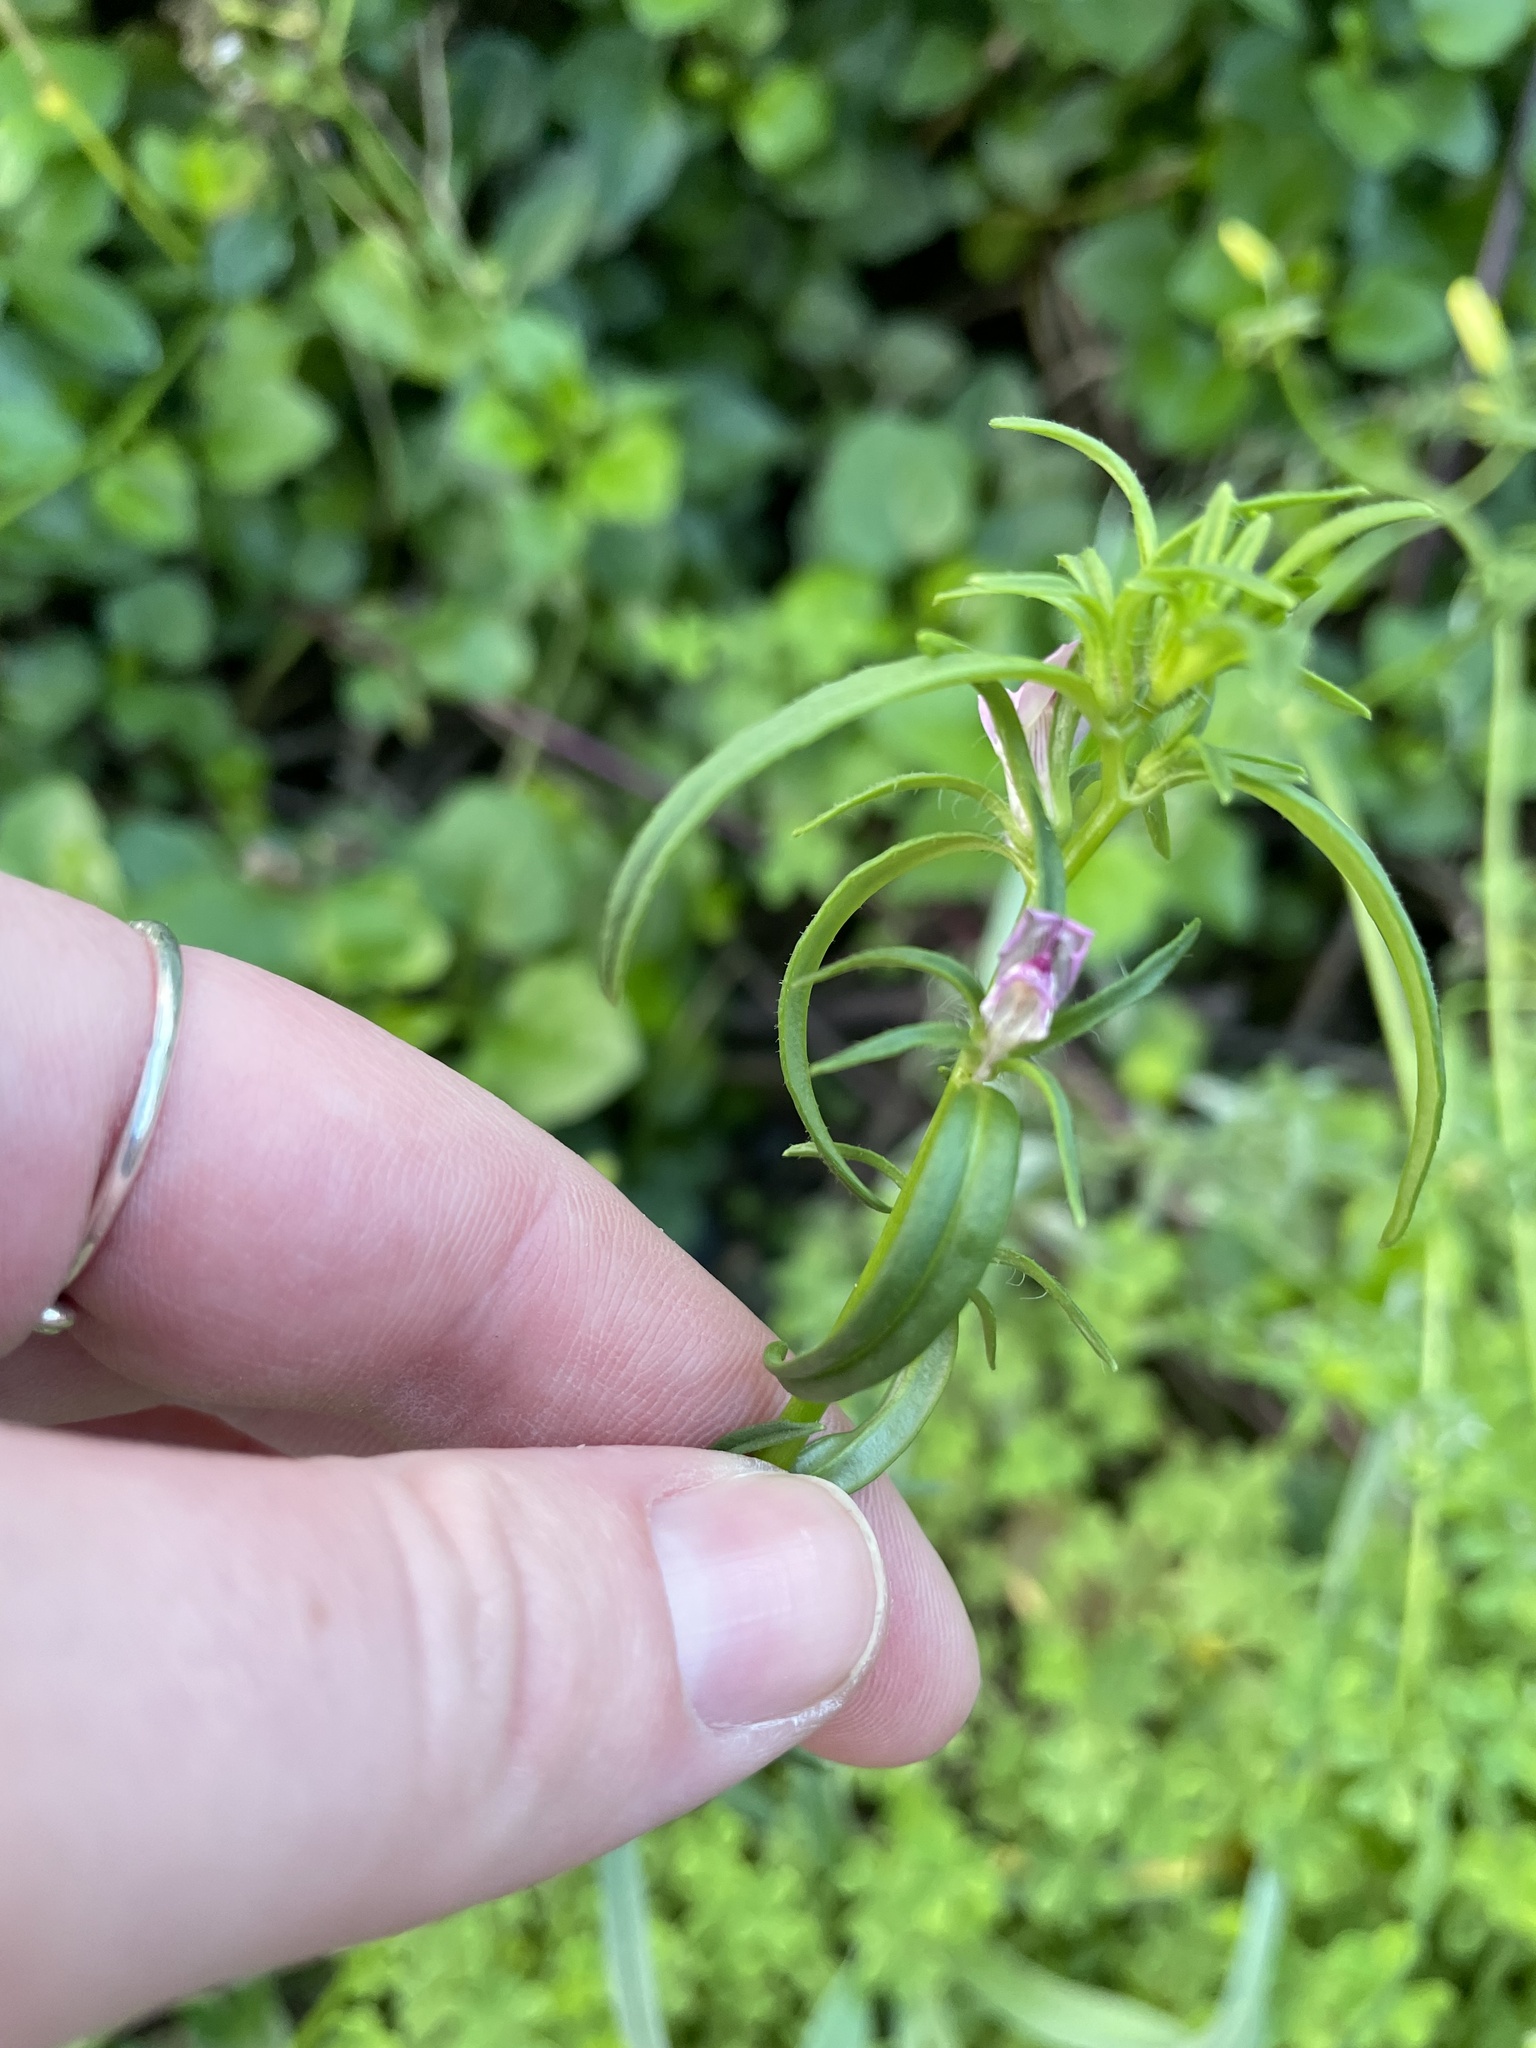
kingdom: Plantae
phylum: Tracheophyta
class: Magnoliopsida
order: Lamiales
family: Plantaginaceae
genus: Misopates
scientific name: Misopates orontium
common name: Weasel's-snout
